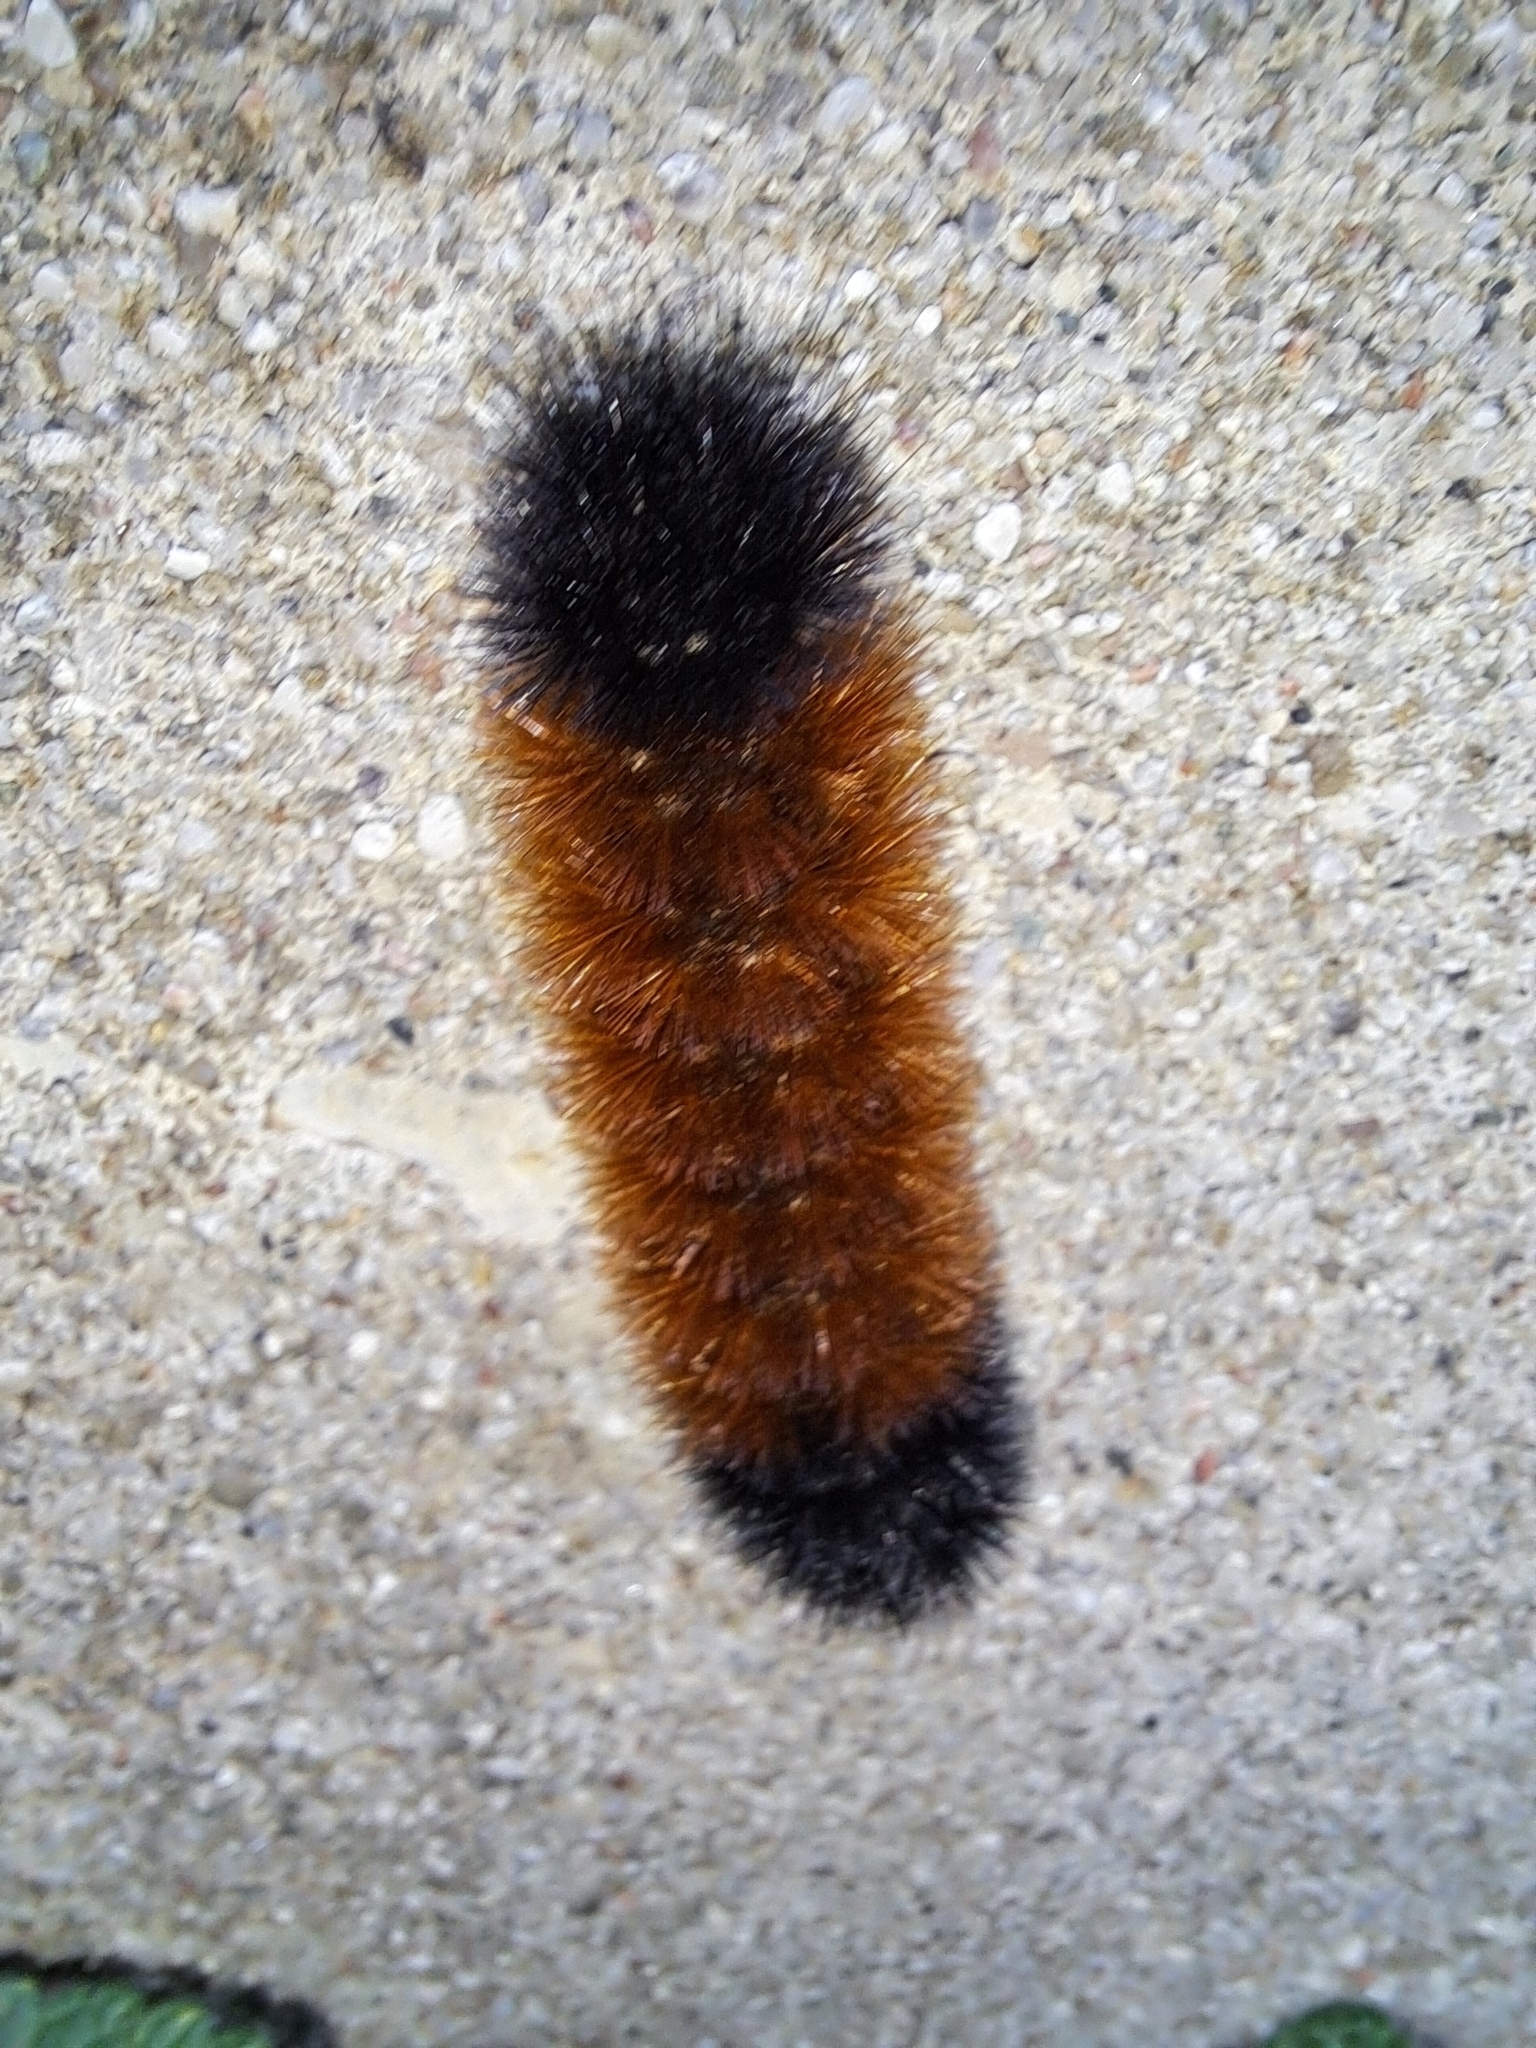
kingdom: Animalia
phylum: Arthropoda
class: Insecta
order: Lepidoptera
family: Erebidae
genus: Pyrrharctia
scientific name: Pyrrharctia isabella
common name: Isabella tiger moth
